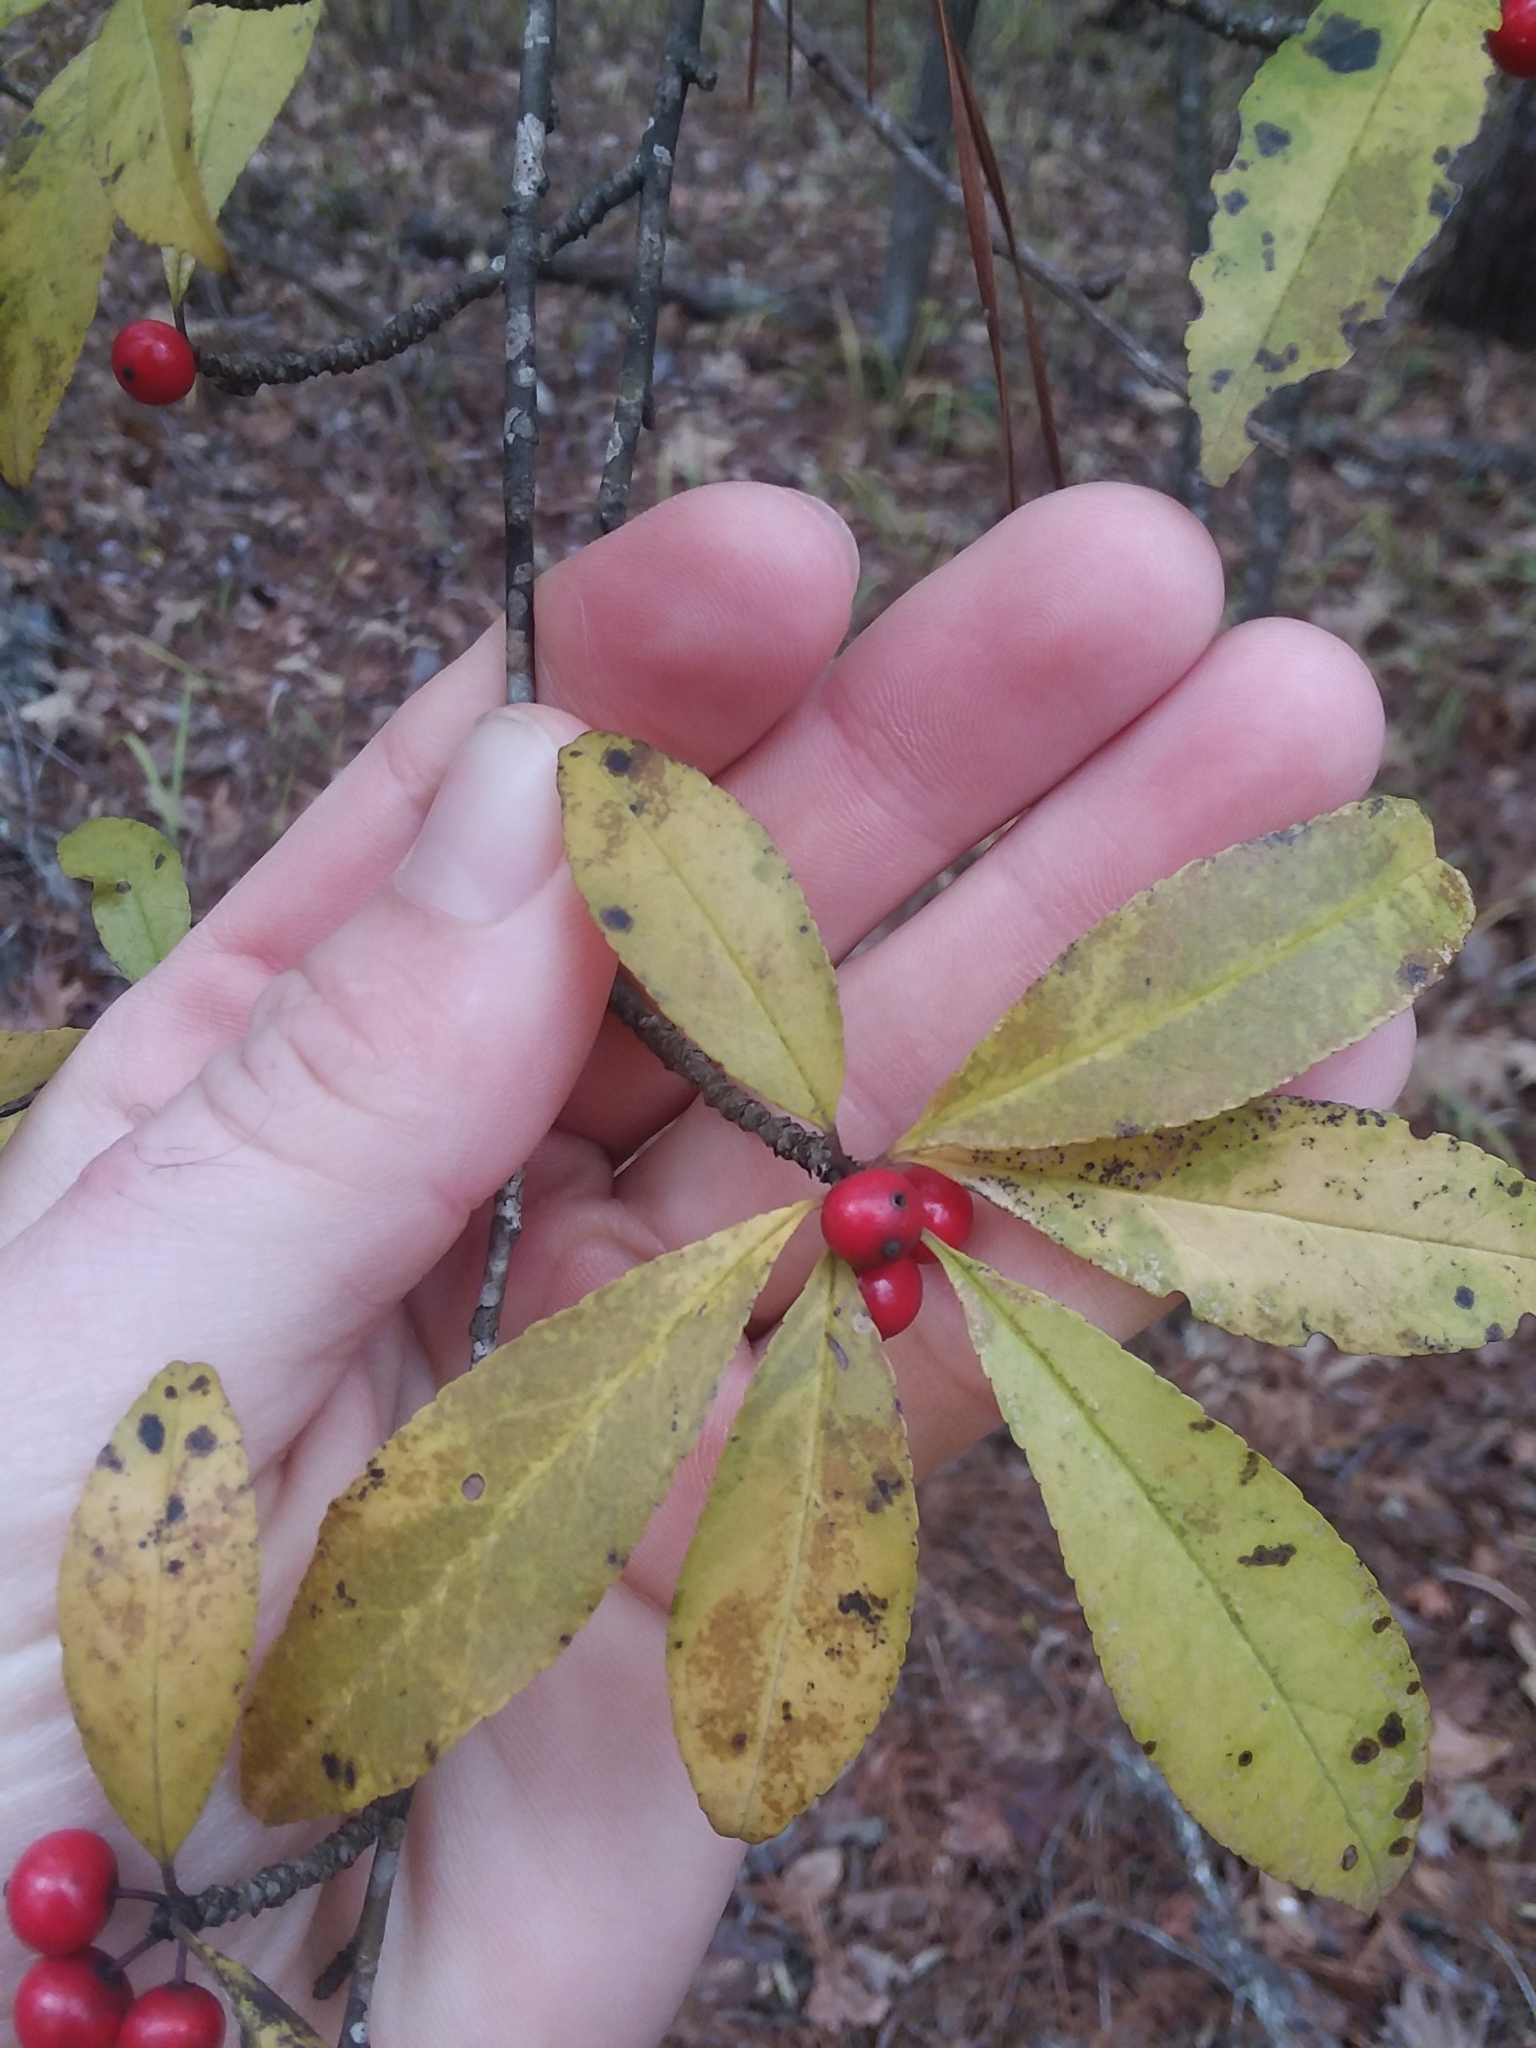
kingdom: Plantae
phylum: Tracheophyta
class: Magnoliopsida
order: Aquifoliales
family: Aquifoliaceae
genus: Ilex
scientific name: Ilex decidua
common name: Possum-haw
